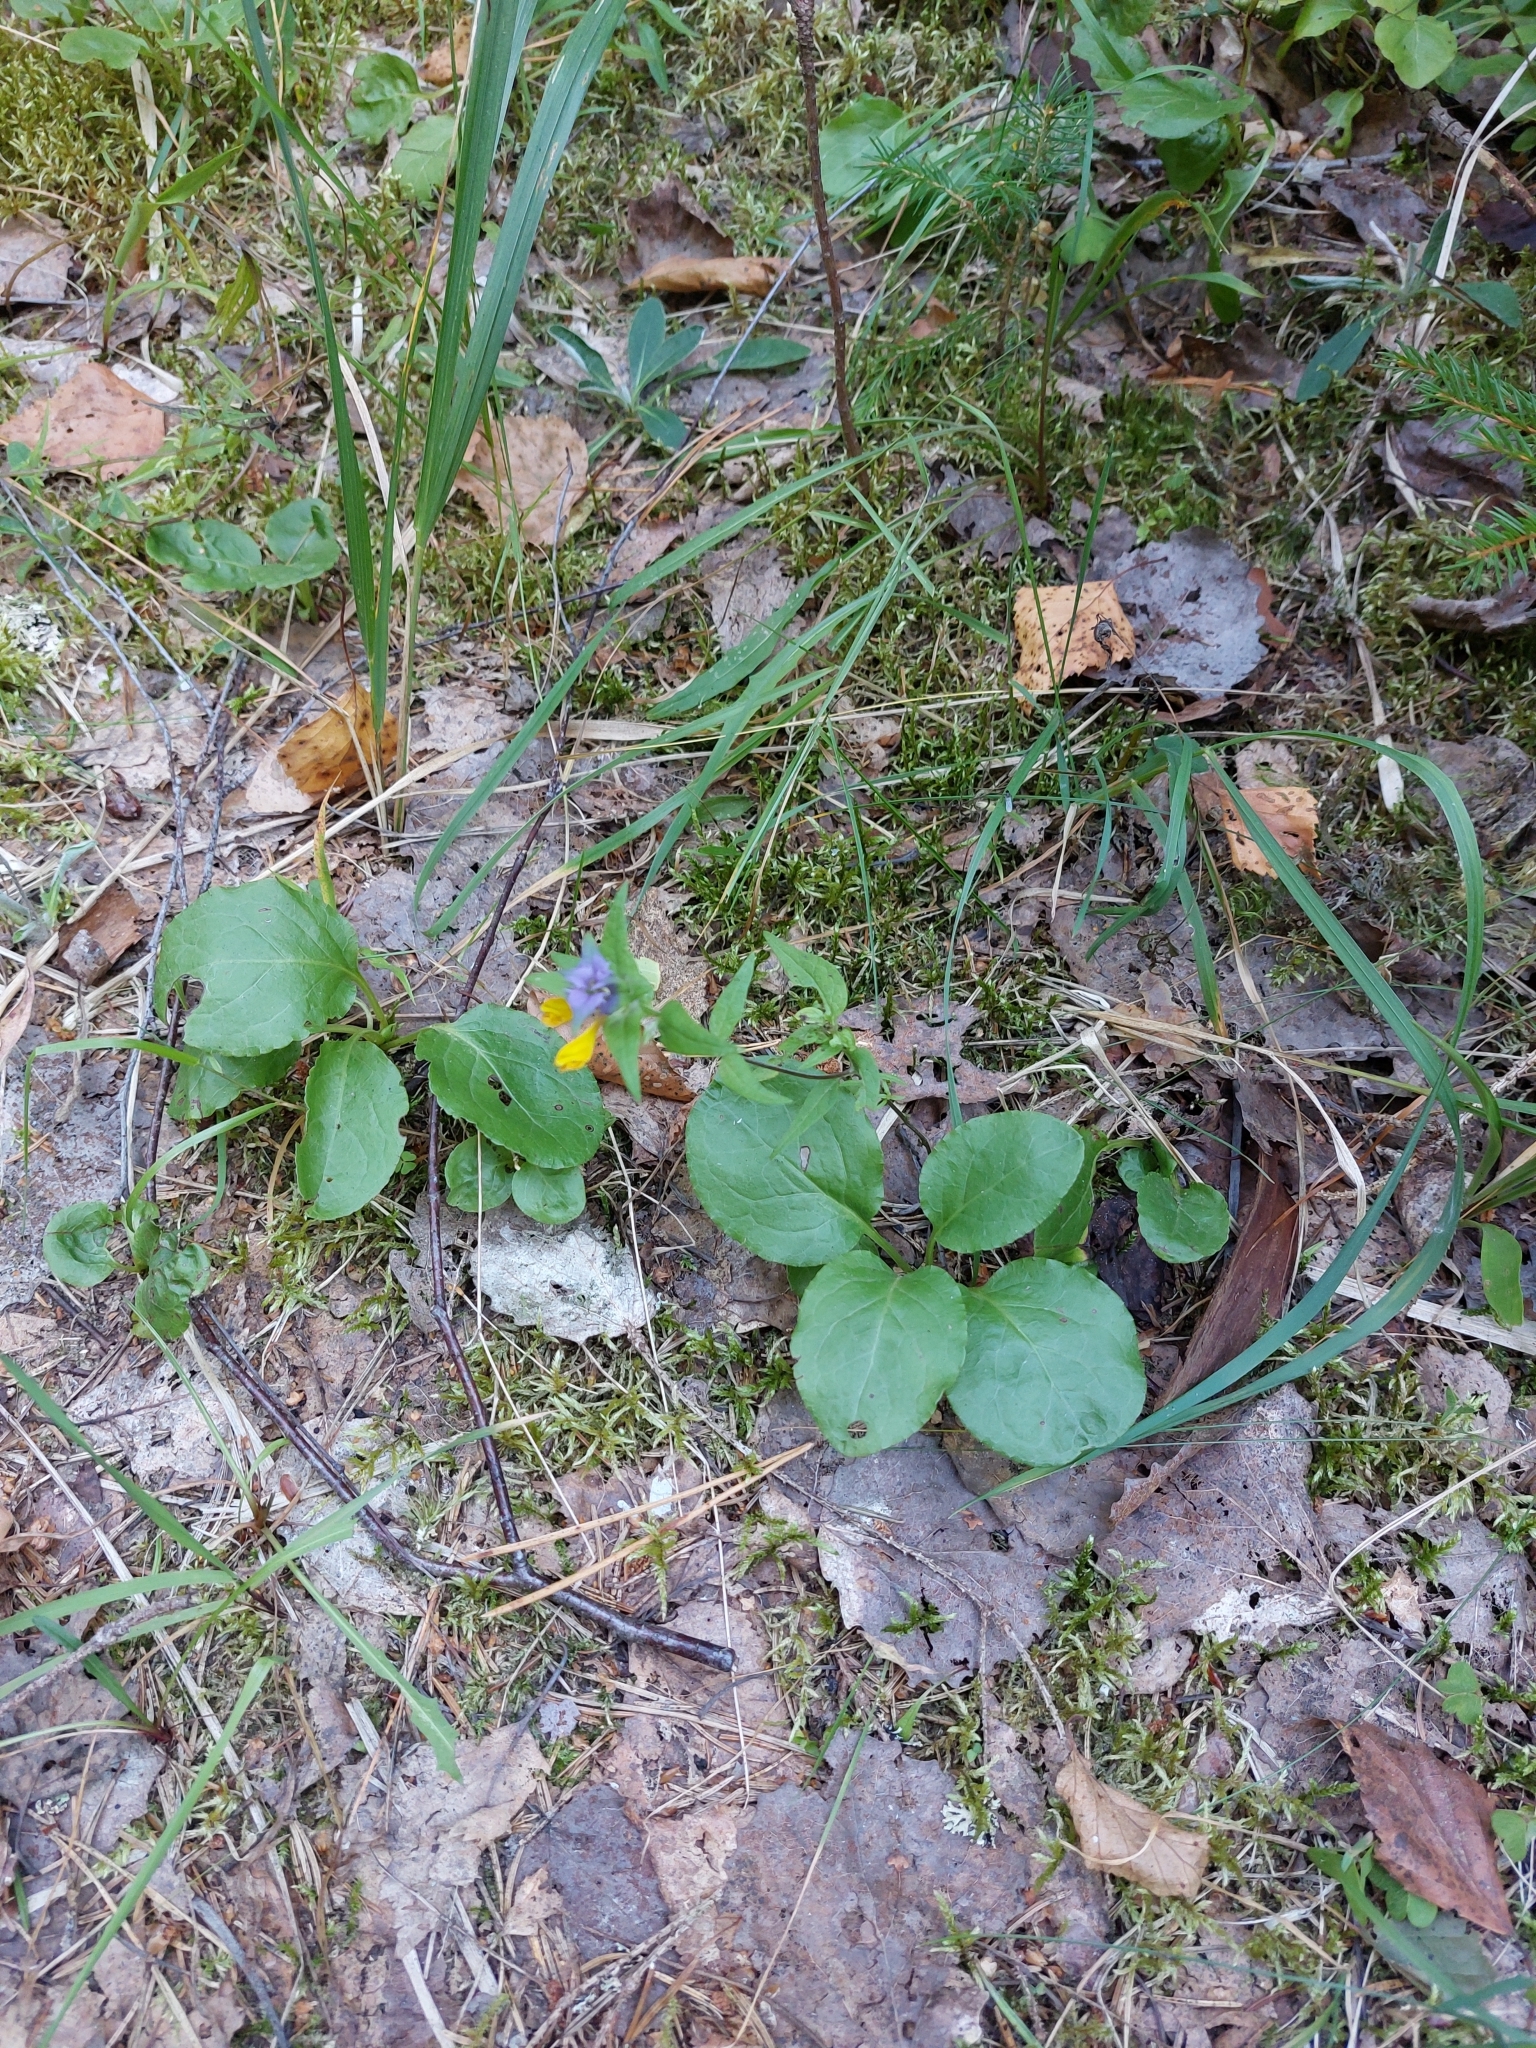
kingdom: Plantae
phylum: Tracheophyta
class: Magnoliopsida
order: Lamiales
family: Orobanchaceae
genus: Melampyrum
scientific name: Melampyrum nemorosum
